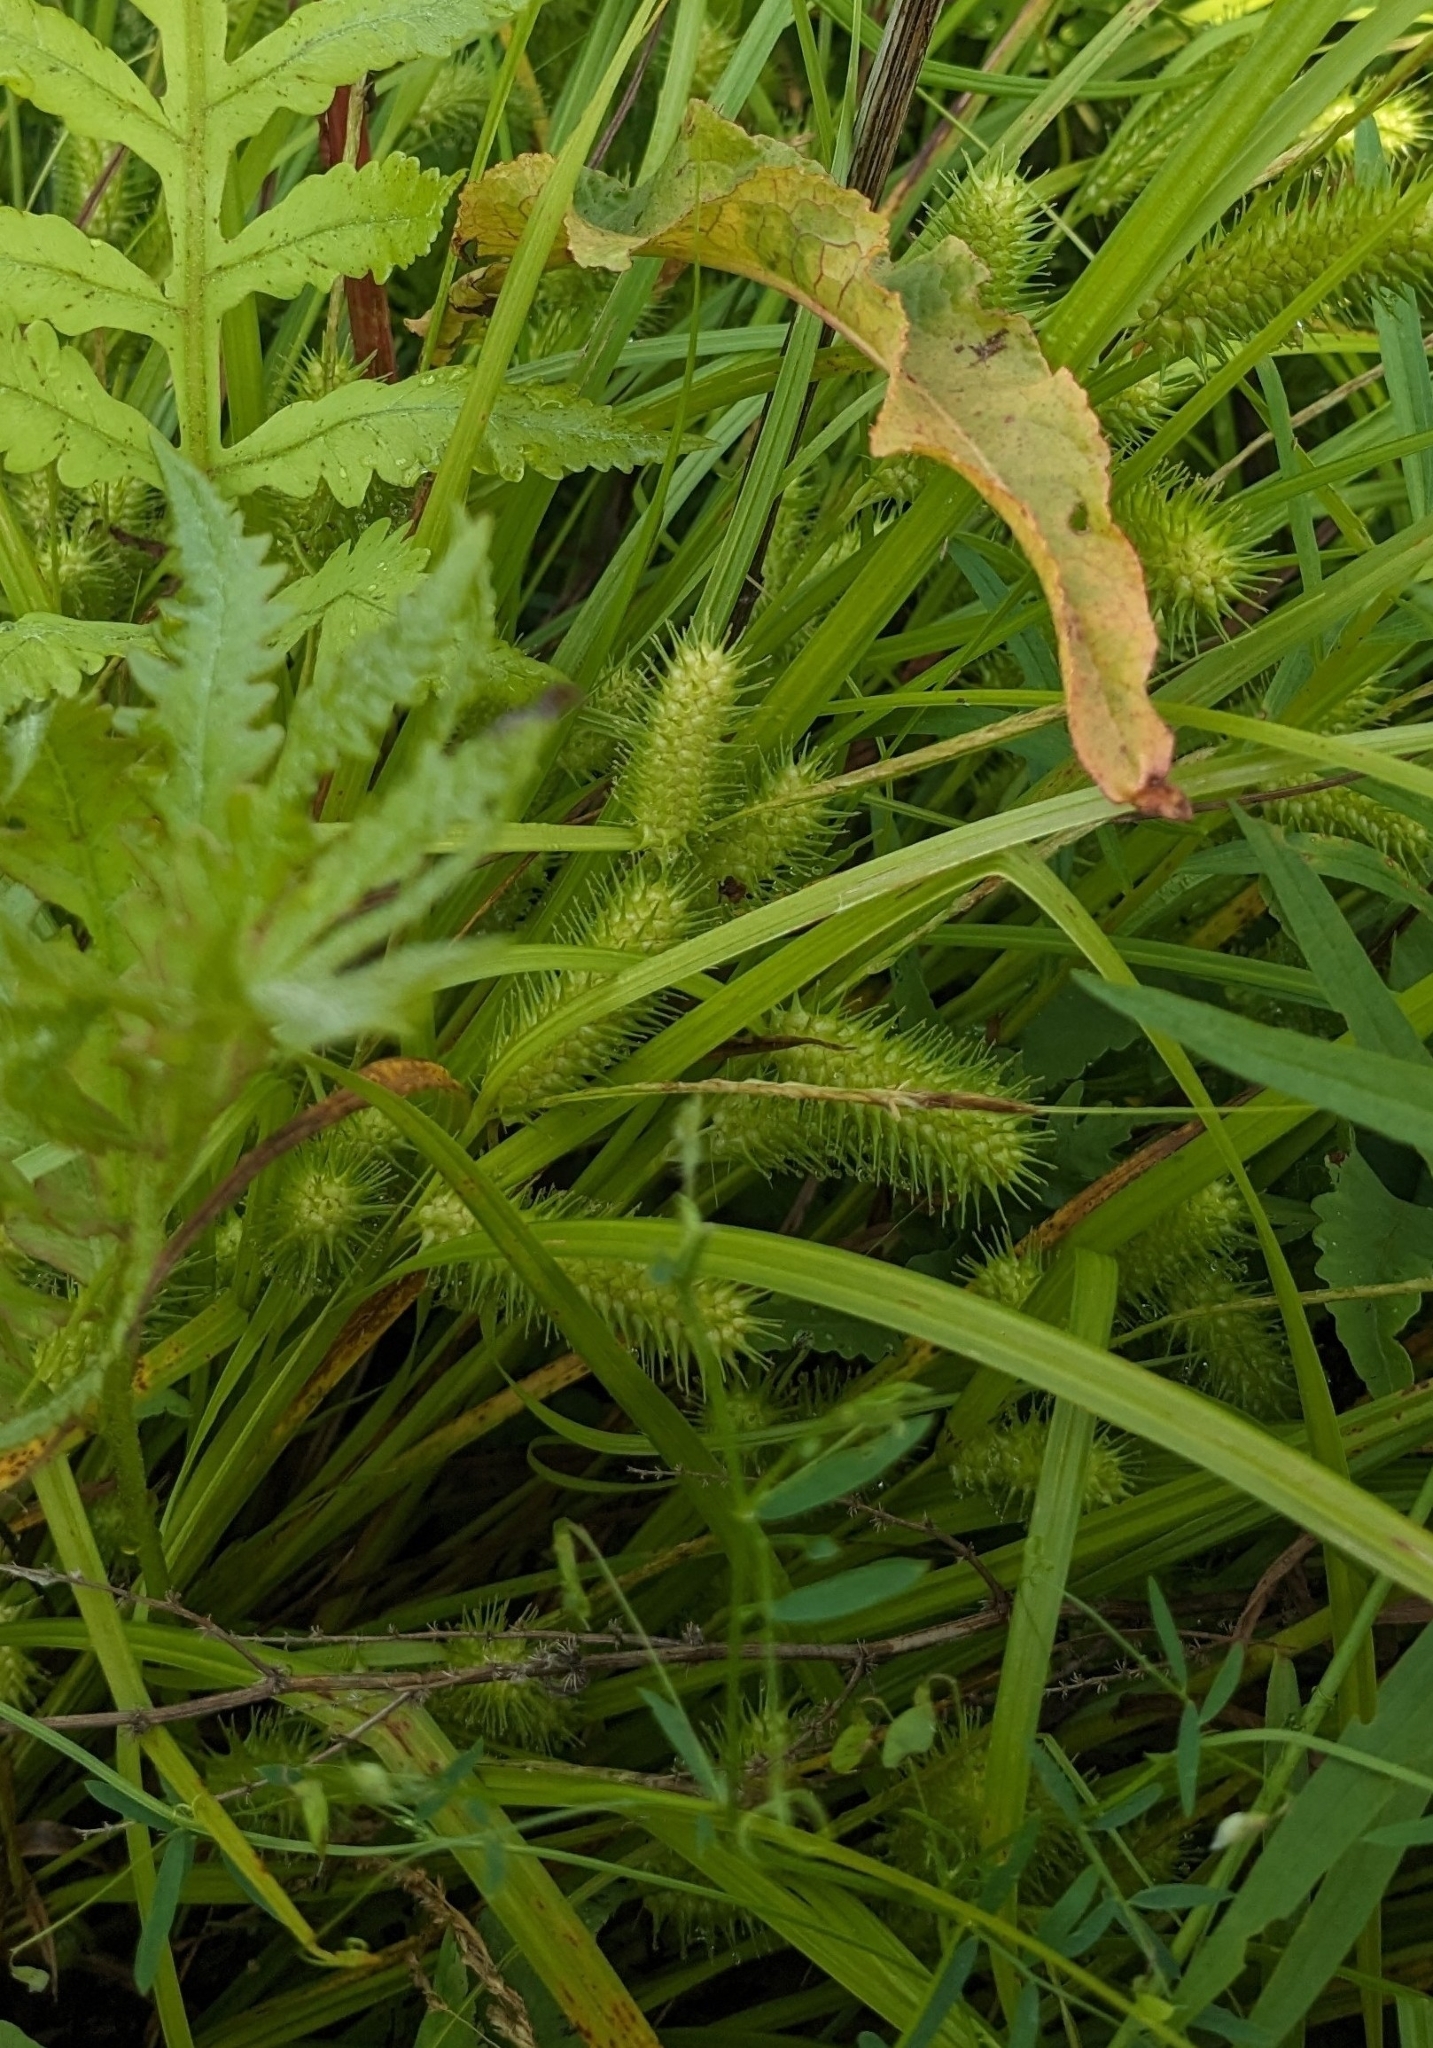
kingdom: Plantae
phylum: Tracheophyta
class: Liliopsida
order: Poales
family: Cyperaceae
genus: Carex
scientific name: Carex lurida
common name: Sallow sedge
